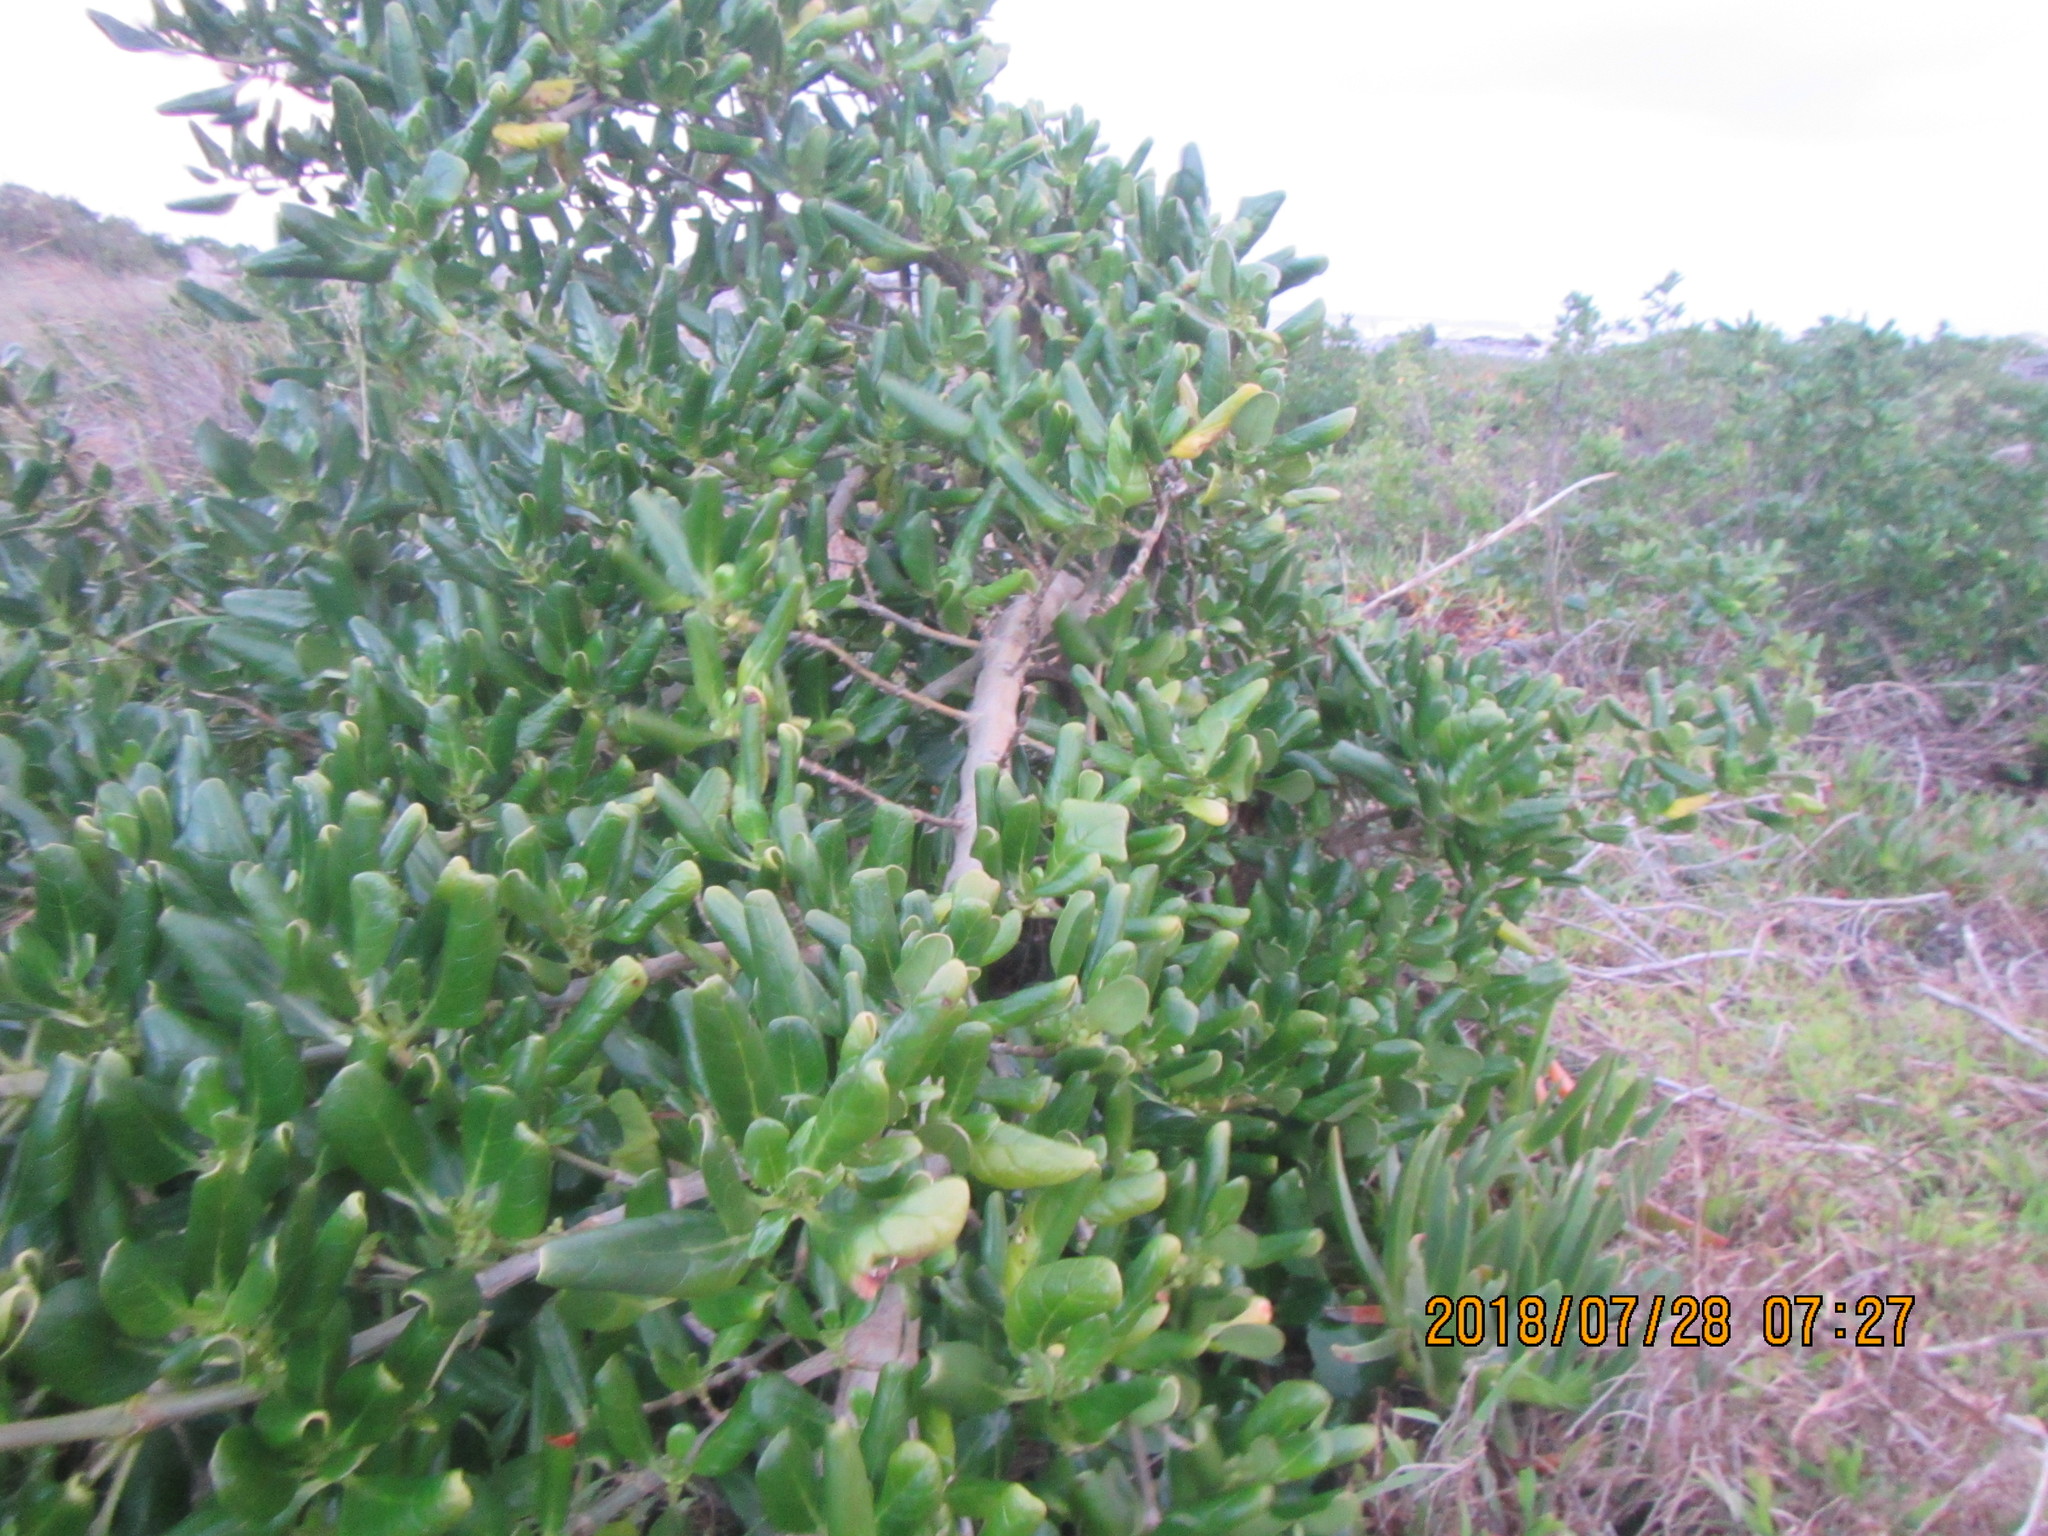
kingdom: Plantae
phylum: Tracheophyta
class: Magnoliopsida
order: Gentianales
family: Rubiaceae
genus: Coprosma
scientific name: Coprosma repens
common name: Tree bedstraw
